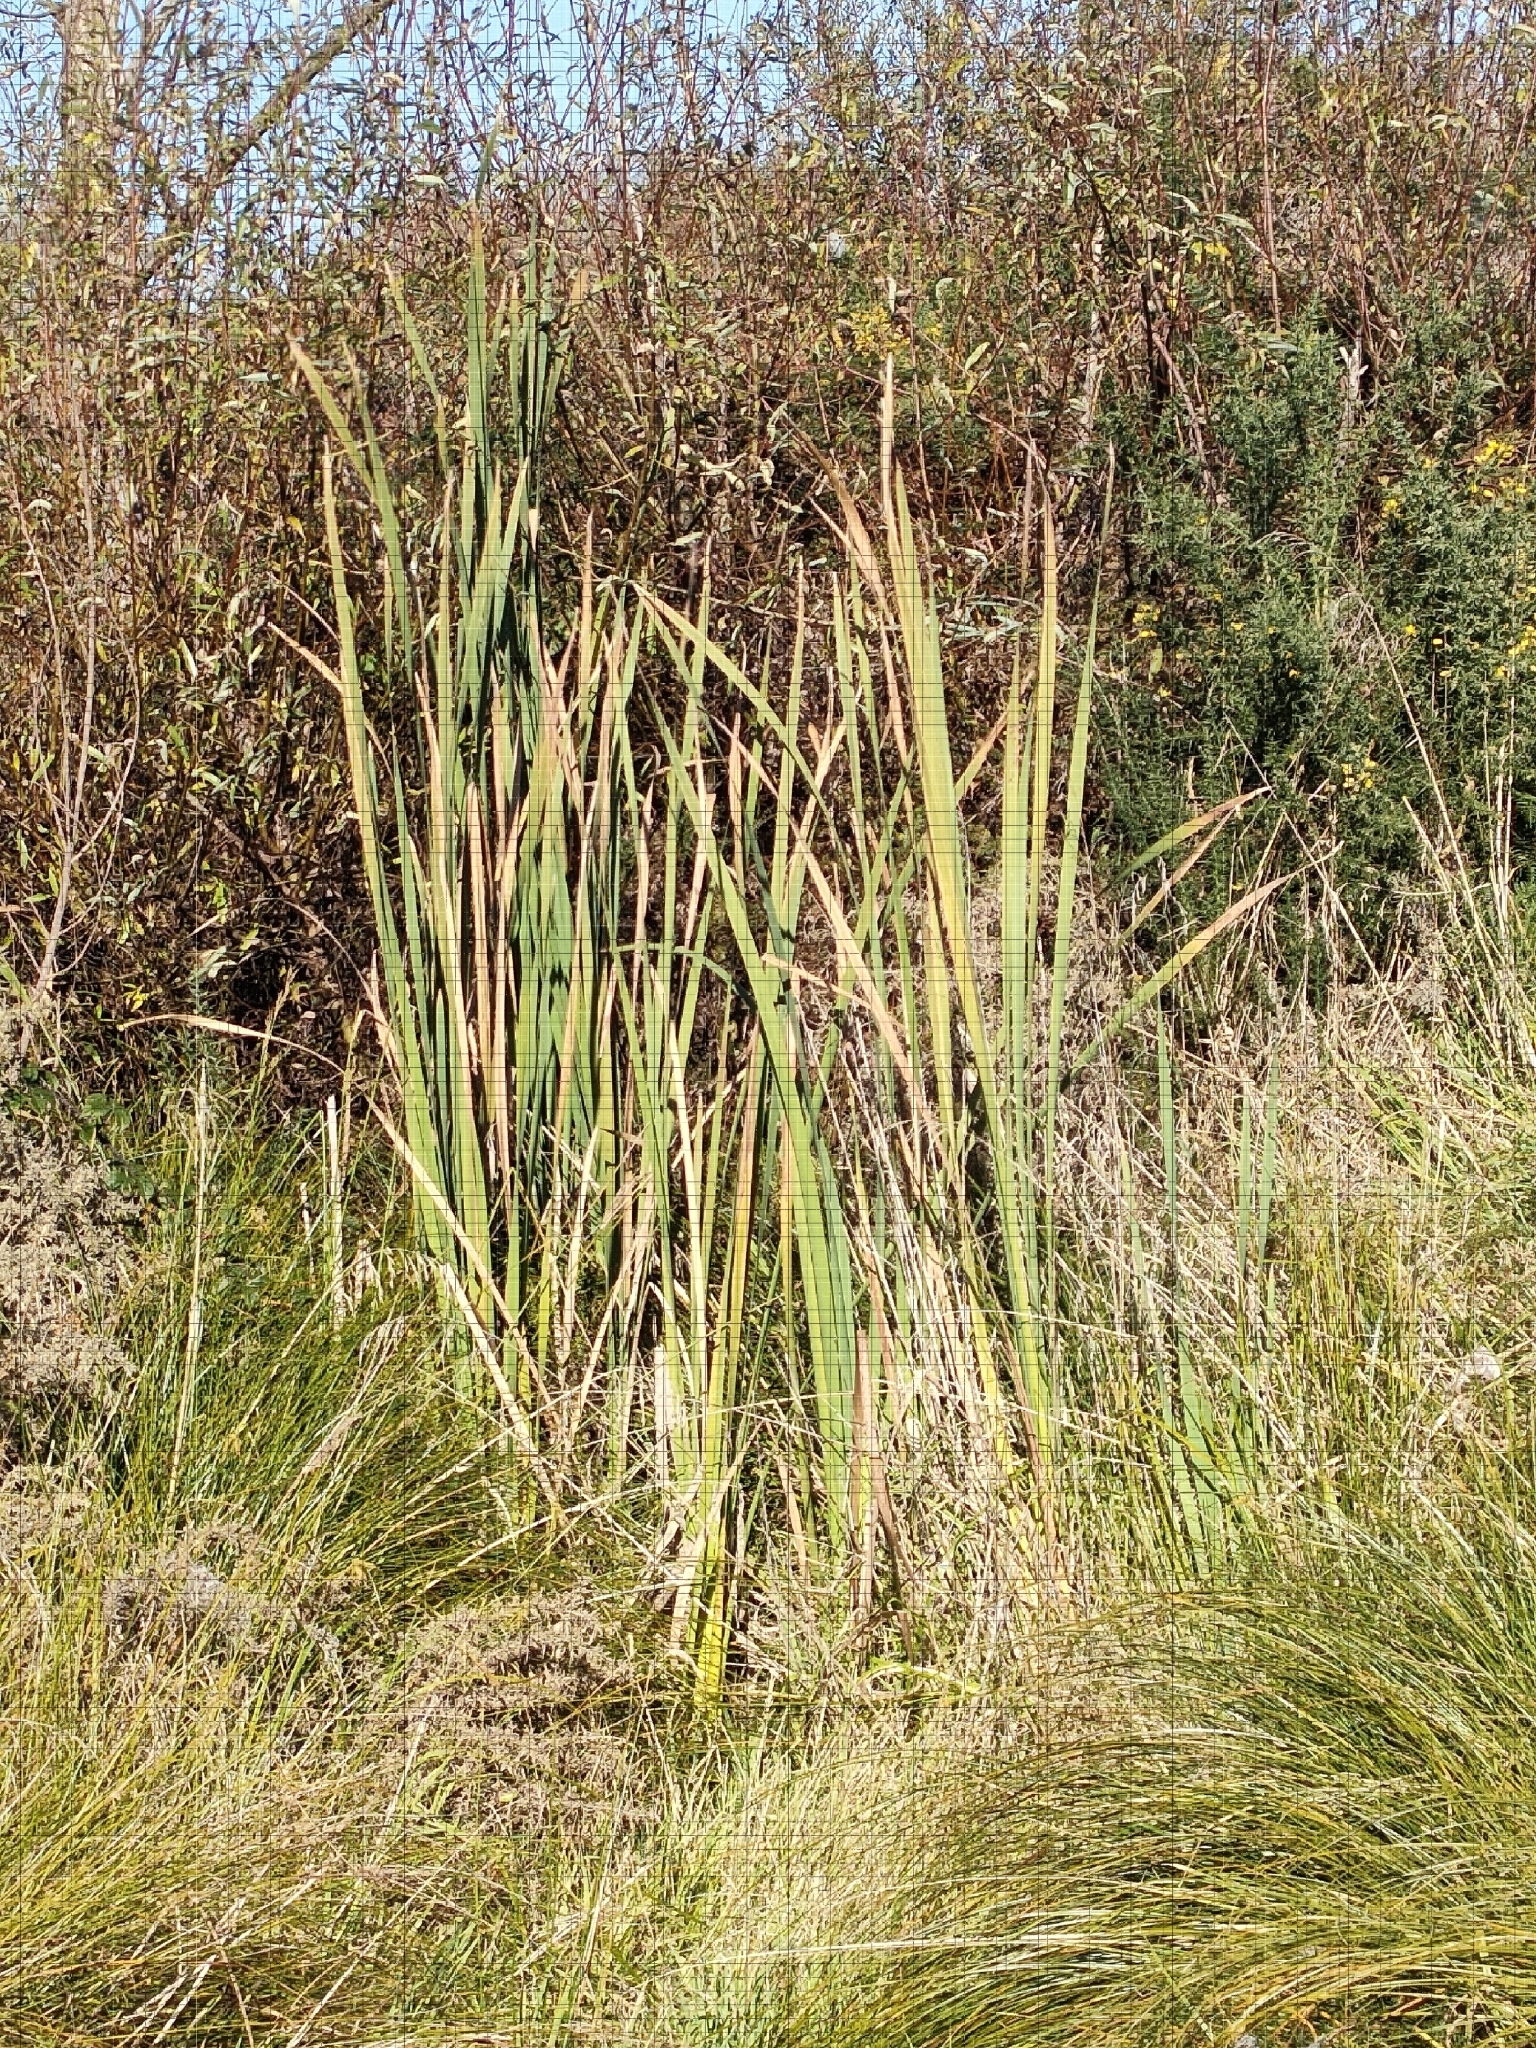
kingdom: Plantae
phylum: Tracheophyta
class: Liliopsida
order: Poales
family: Typhaceae
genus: Typha
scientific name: Typha orientalis
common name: Bullrush
